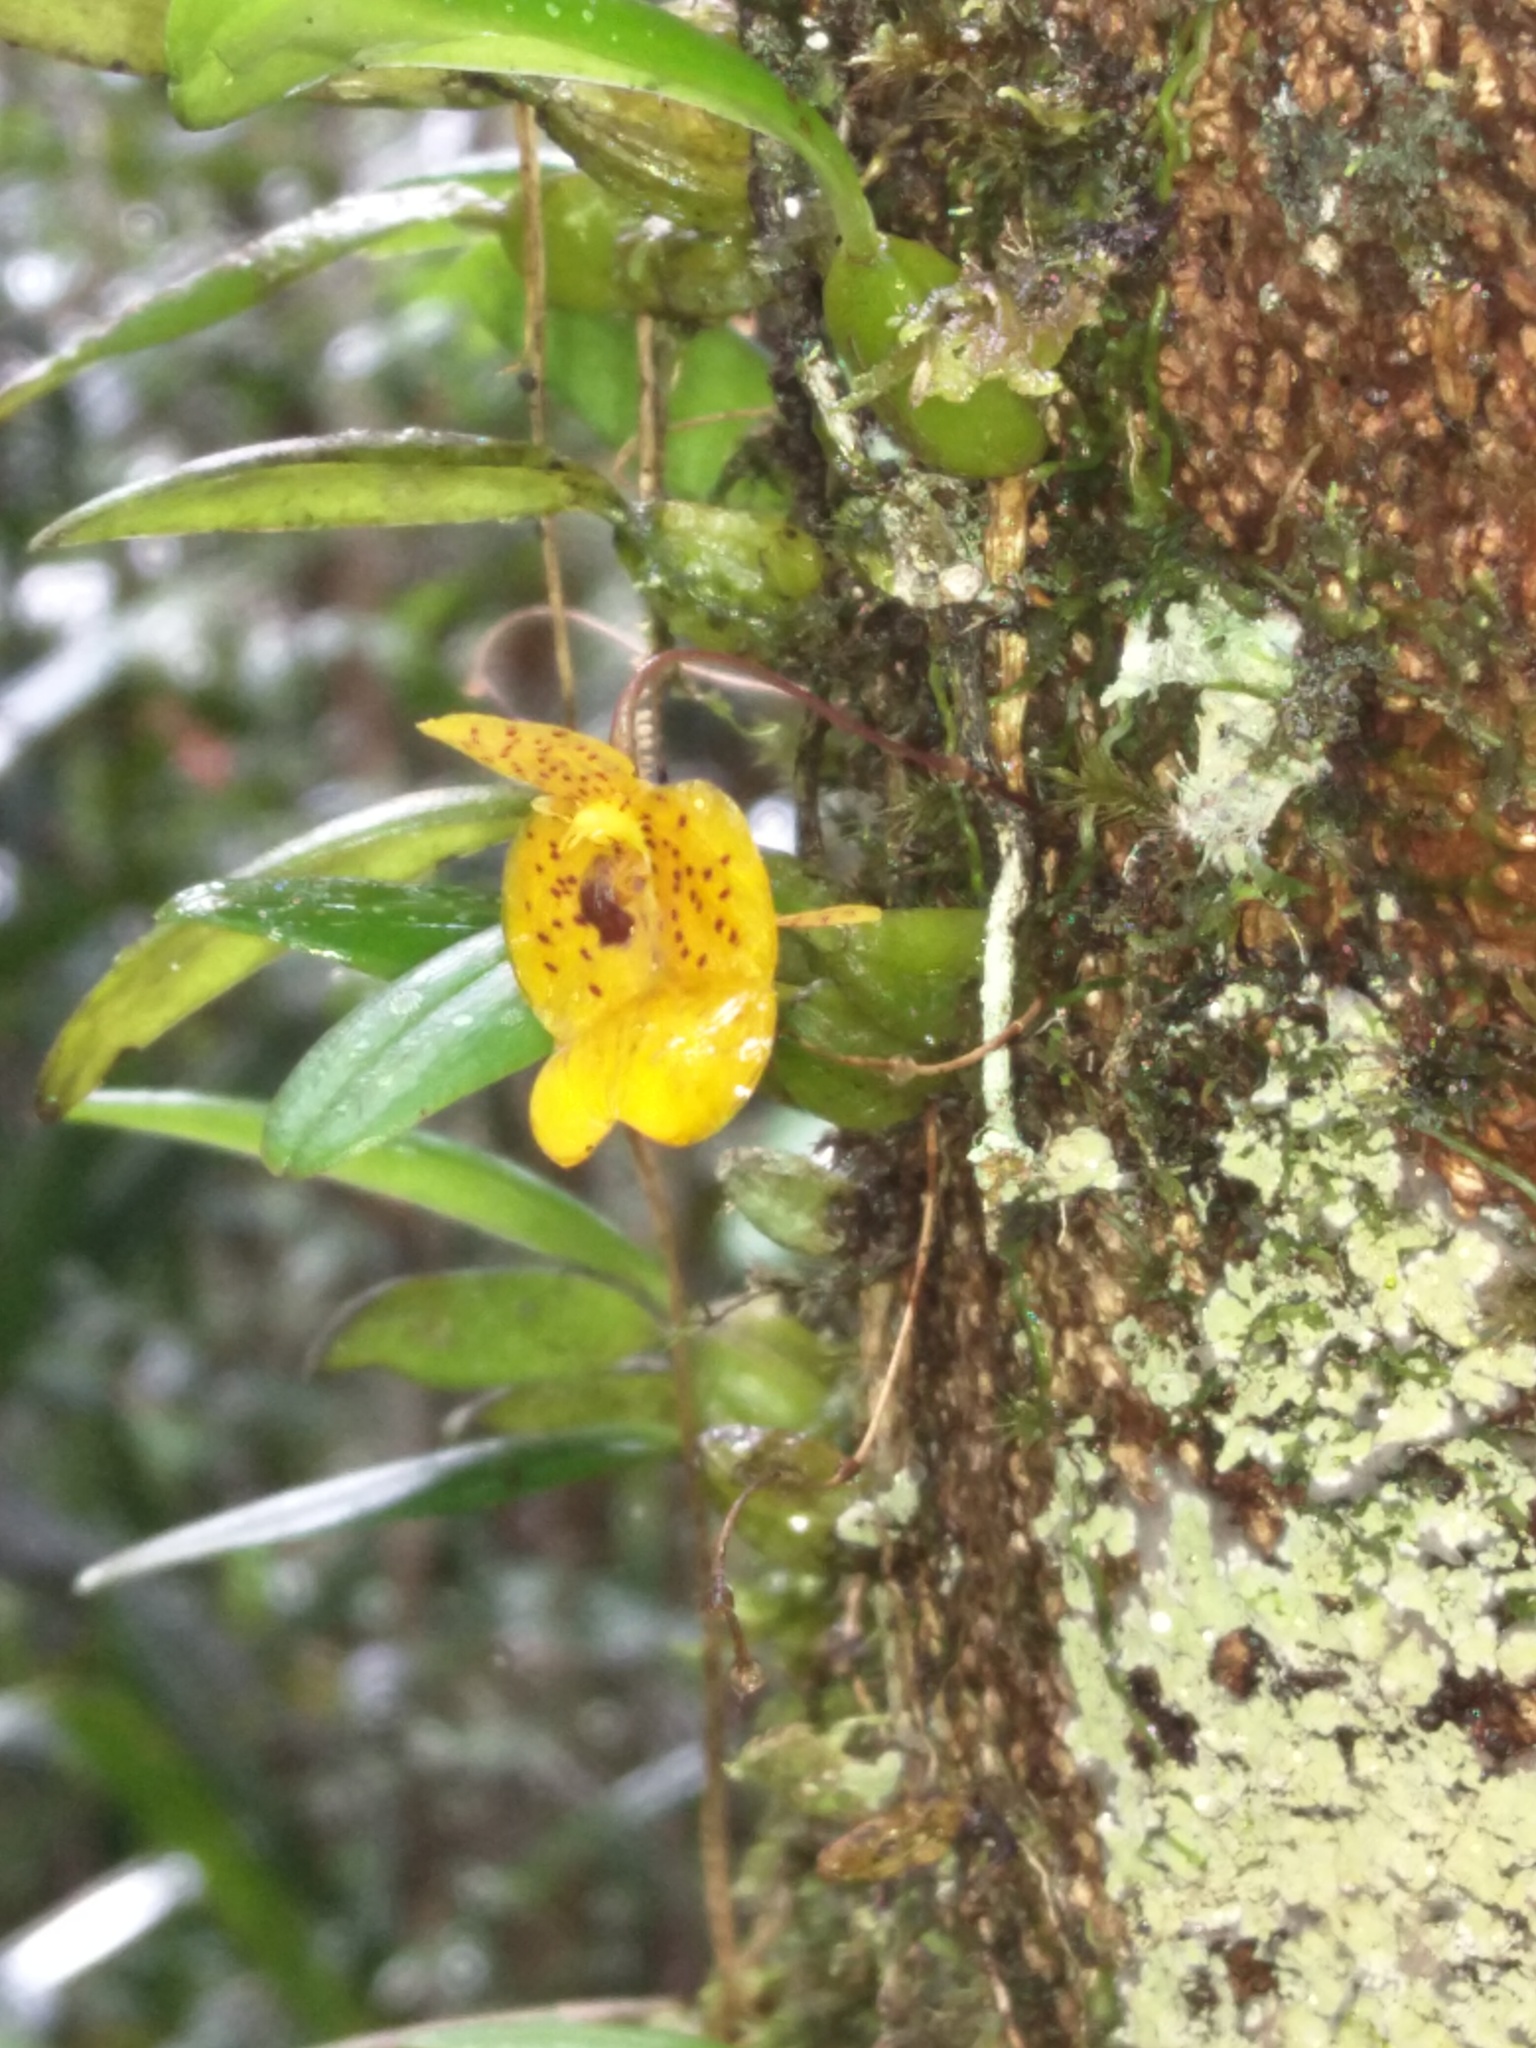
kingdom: Plantae
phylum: Tracheophyta
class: Liliopsida
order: Asparagales
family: Orchidaceae
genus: Bulbophyllum
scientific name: Bulbophyllum analamazoatrae
